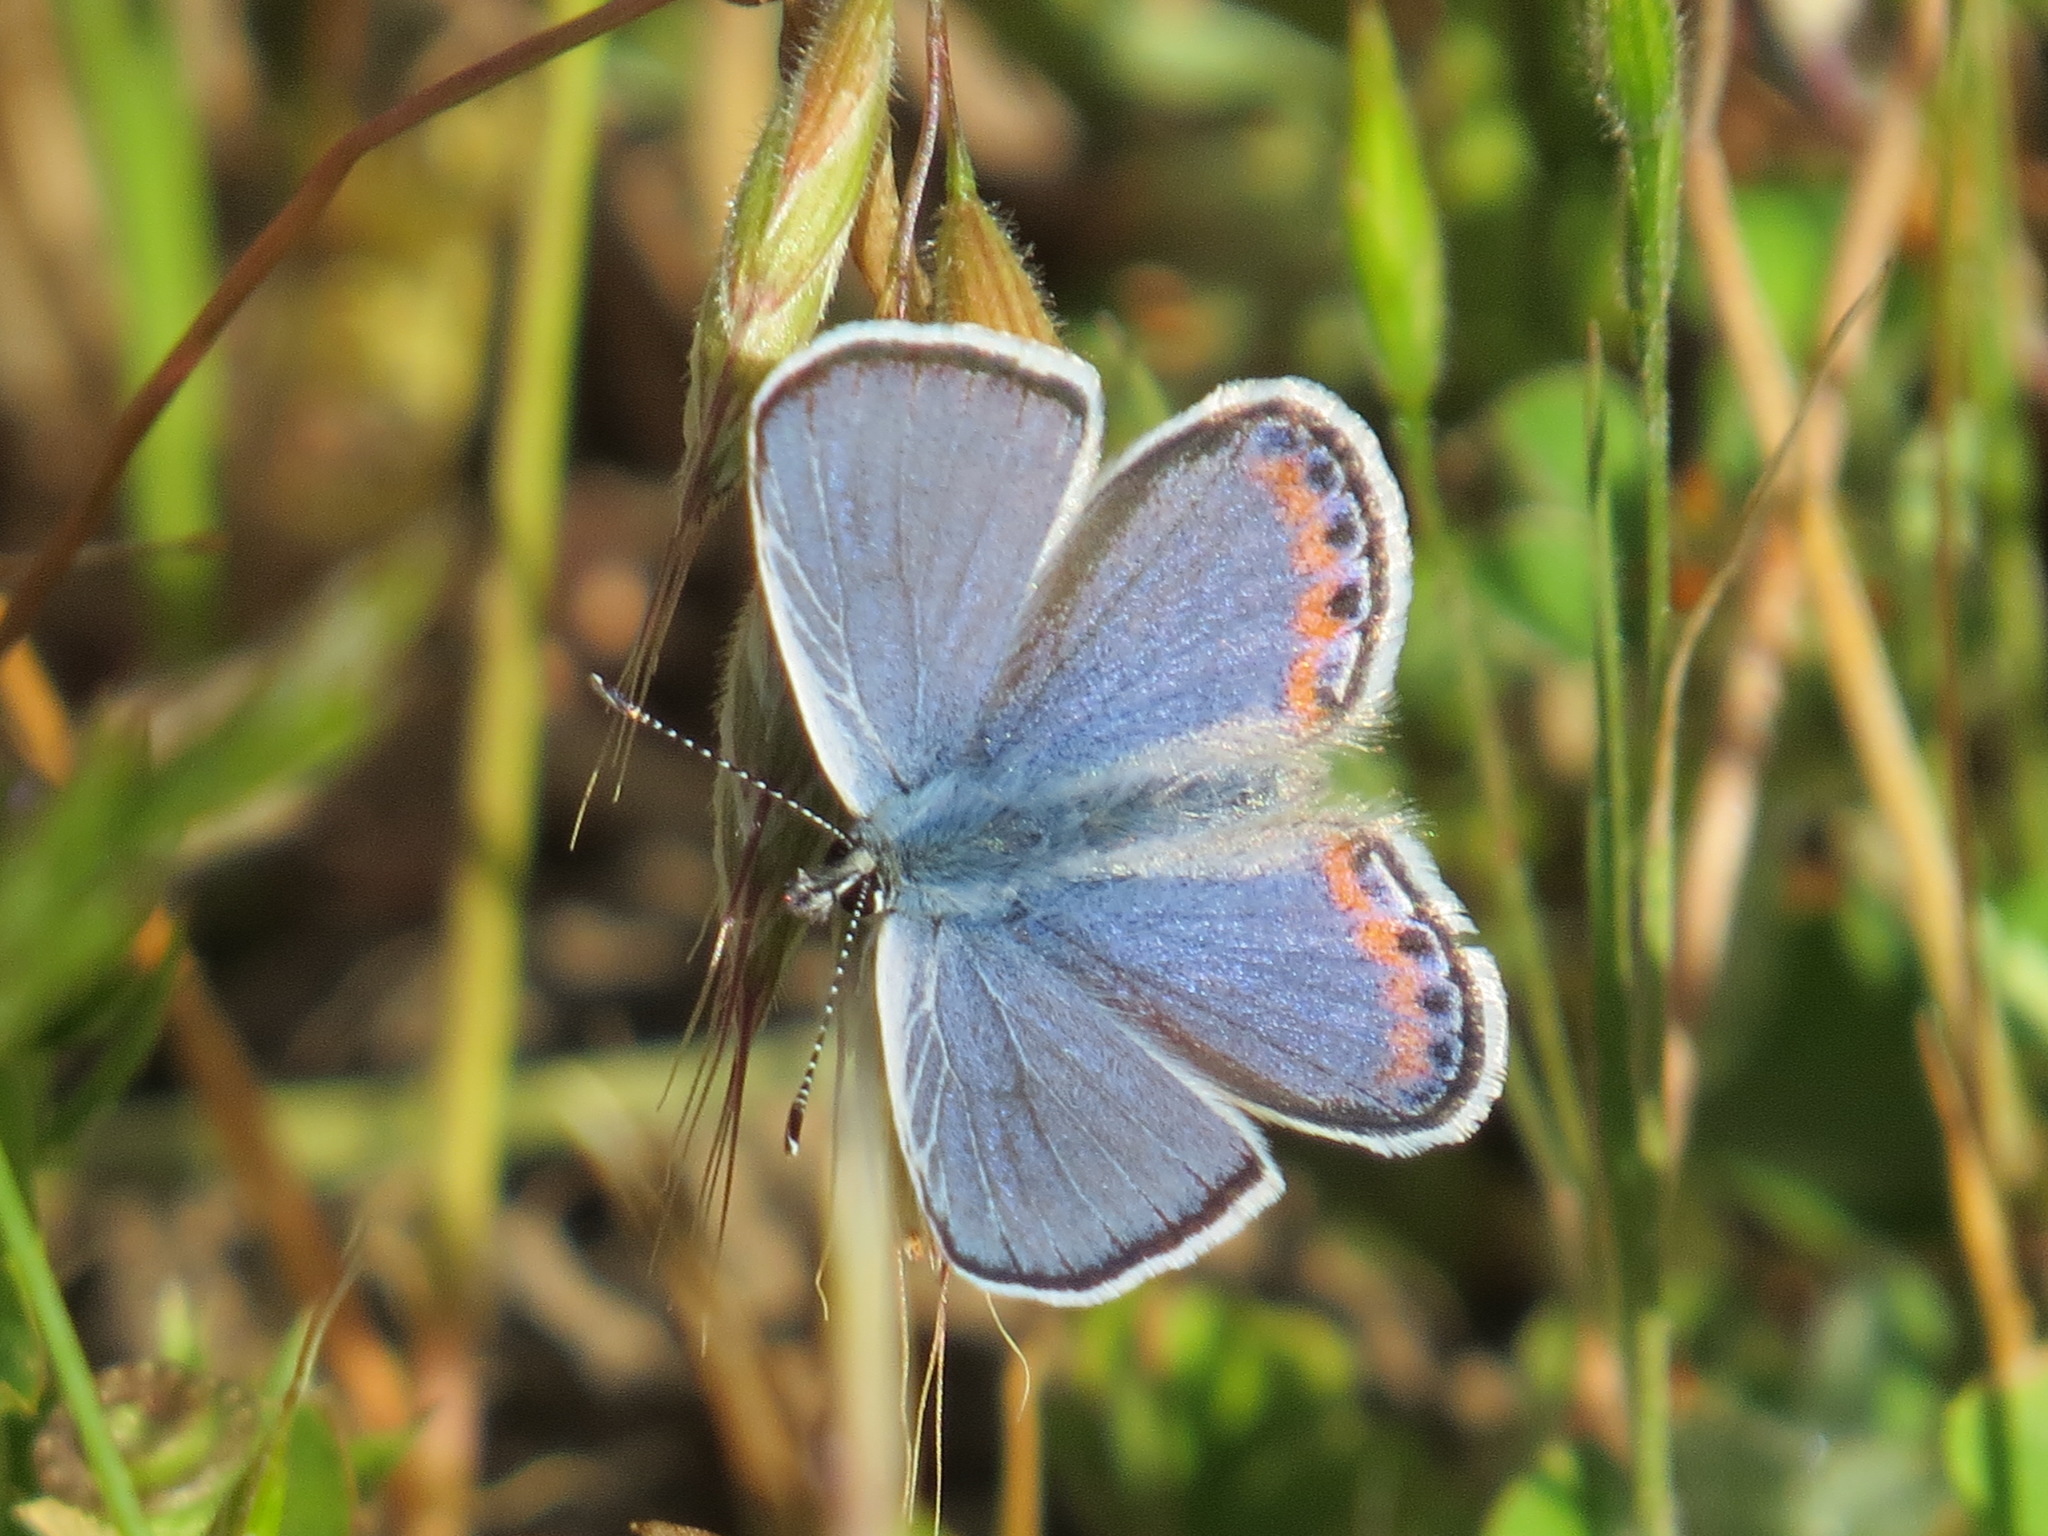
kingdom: Animalia
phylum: Arthropoda
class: Insecta
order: Lepidoptera
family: Lycaenidae
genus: Icaricia
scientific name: Icaricia acmon
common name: Acmon blue
